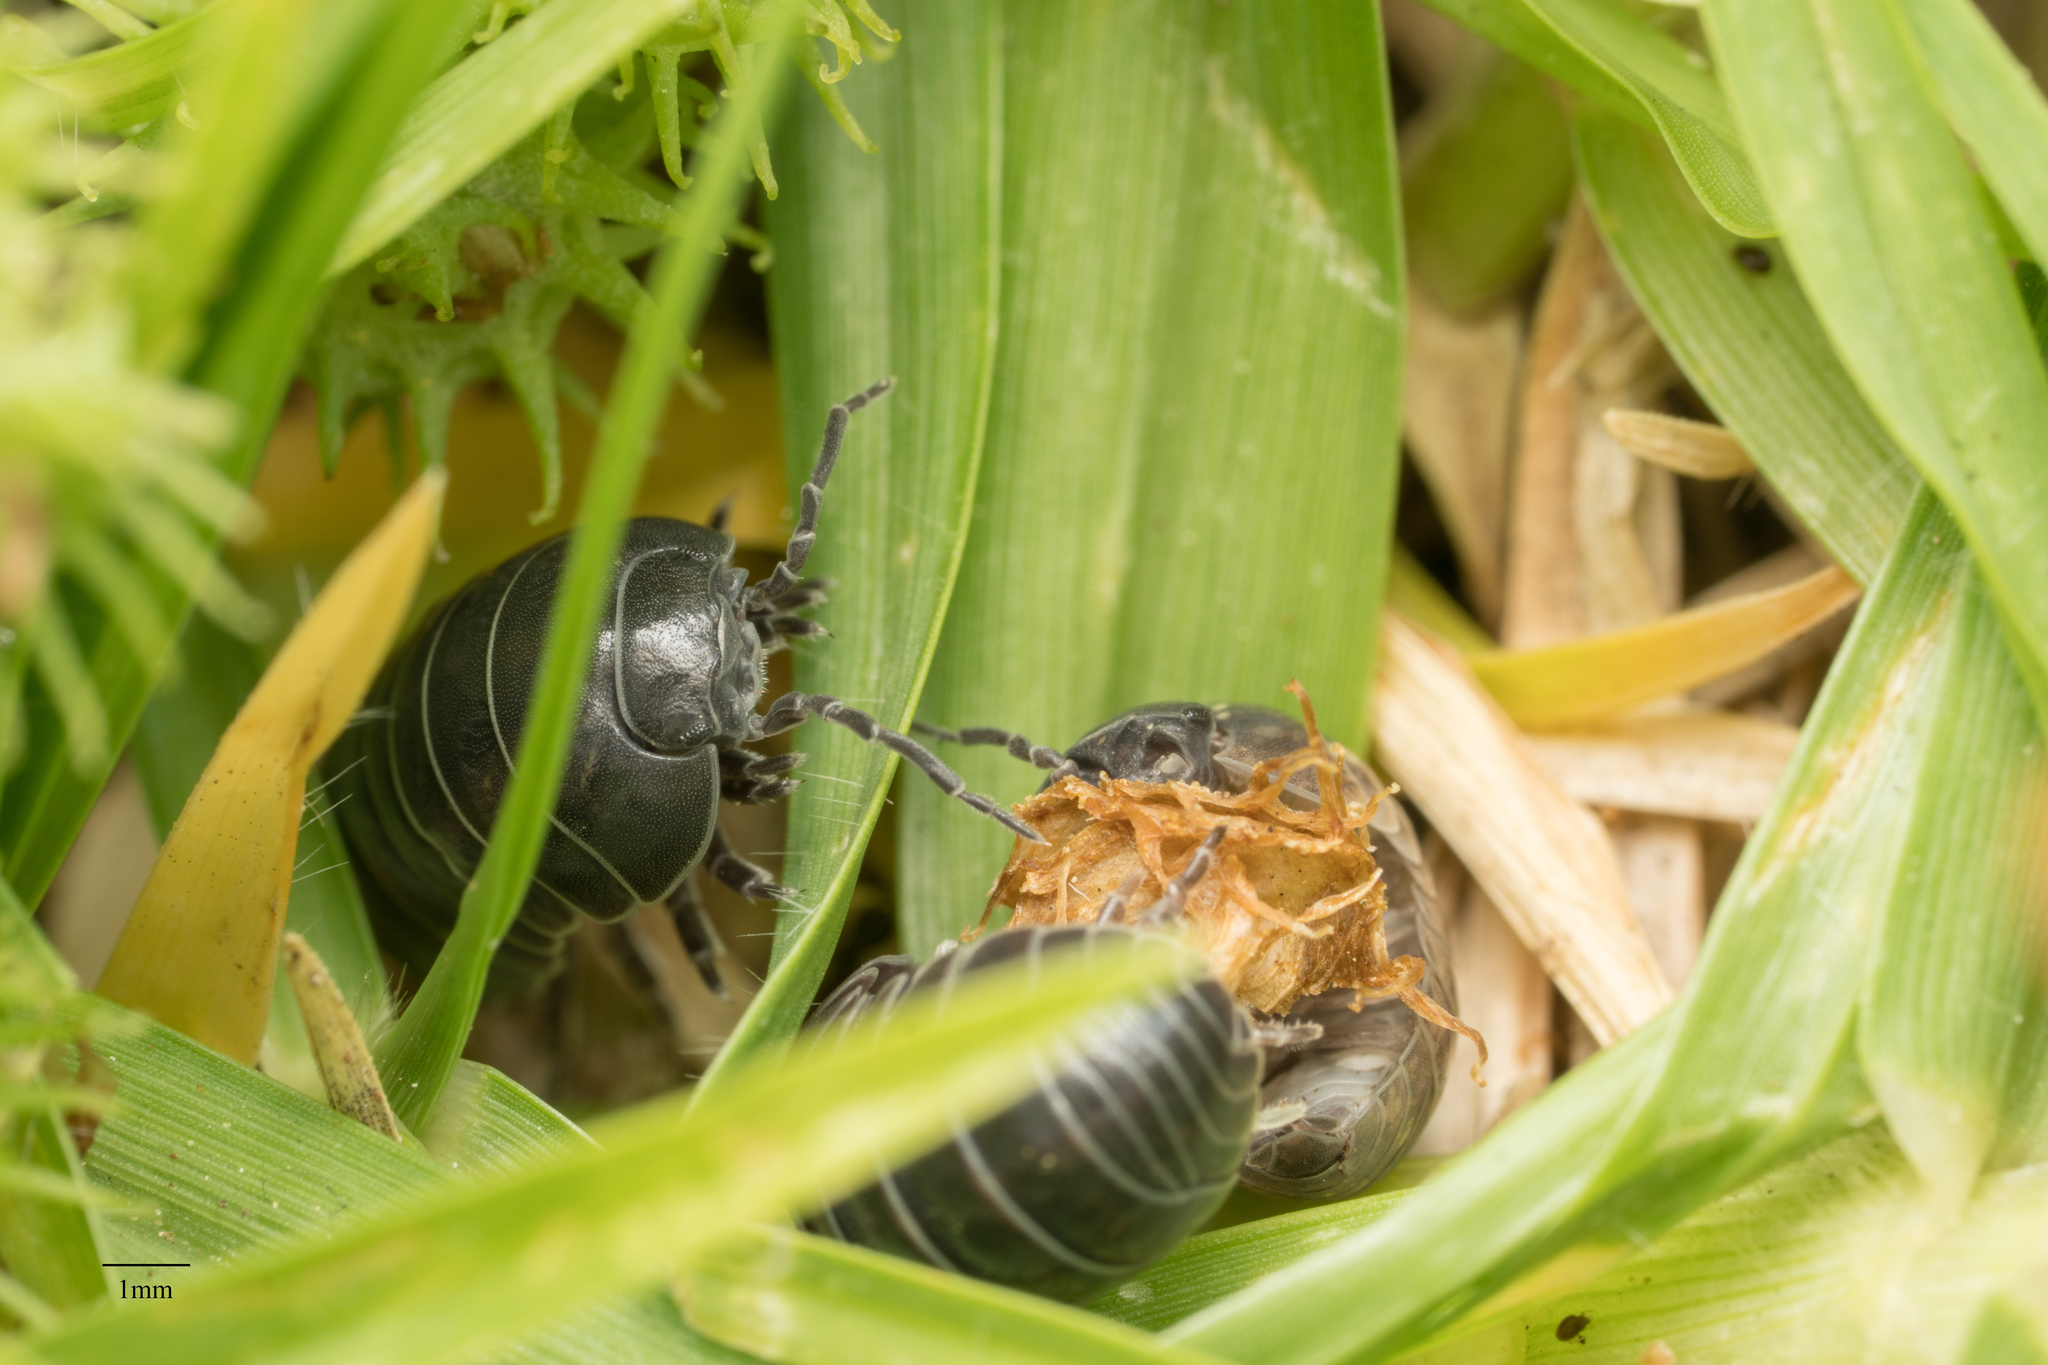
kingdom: Animalia
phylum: Arthropoda
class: Malacostraca
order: Isopoda
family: Armadillidiidae
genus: Armadillidium
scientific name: Armadillidium vulgare
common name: Common pill woodlouse
